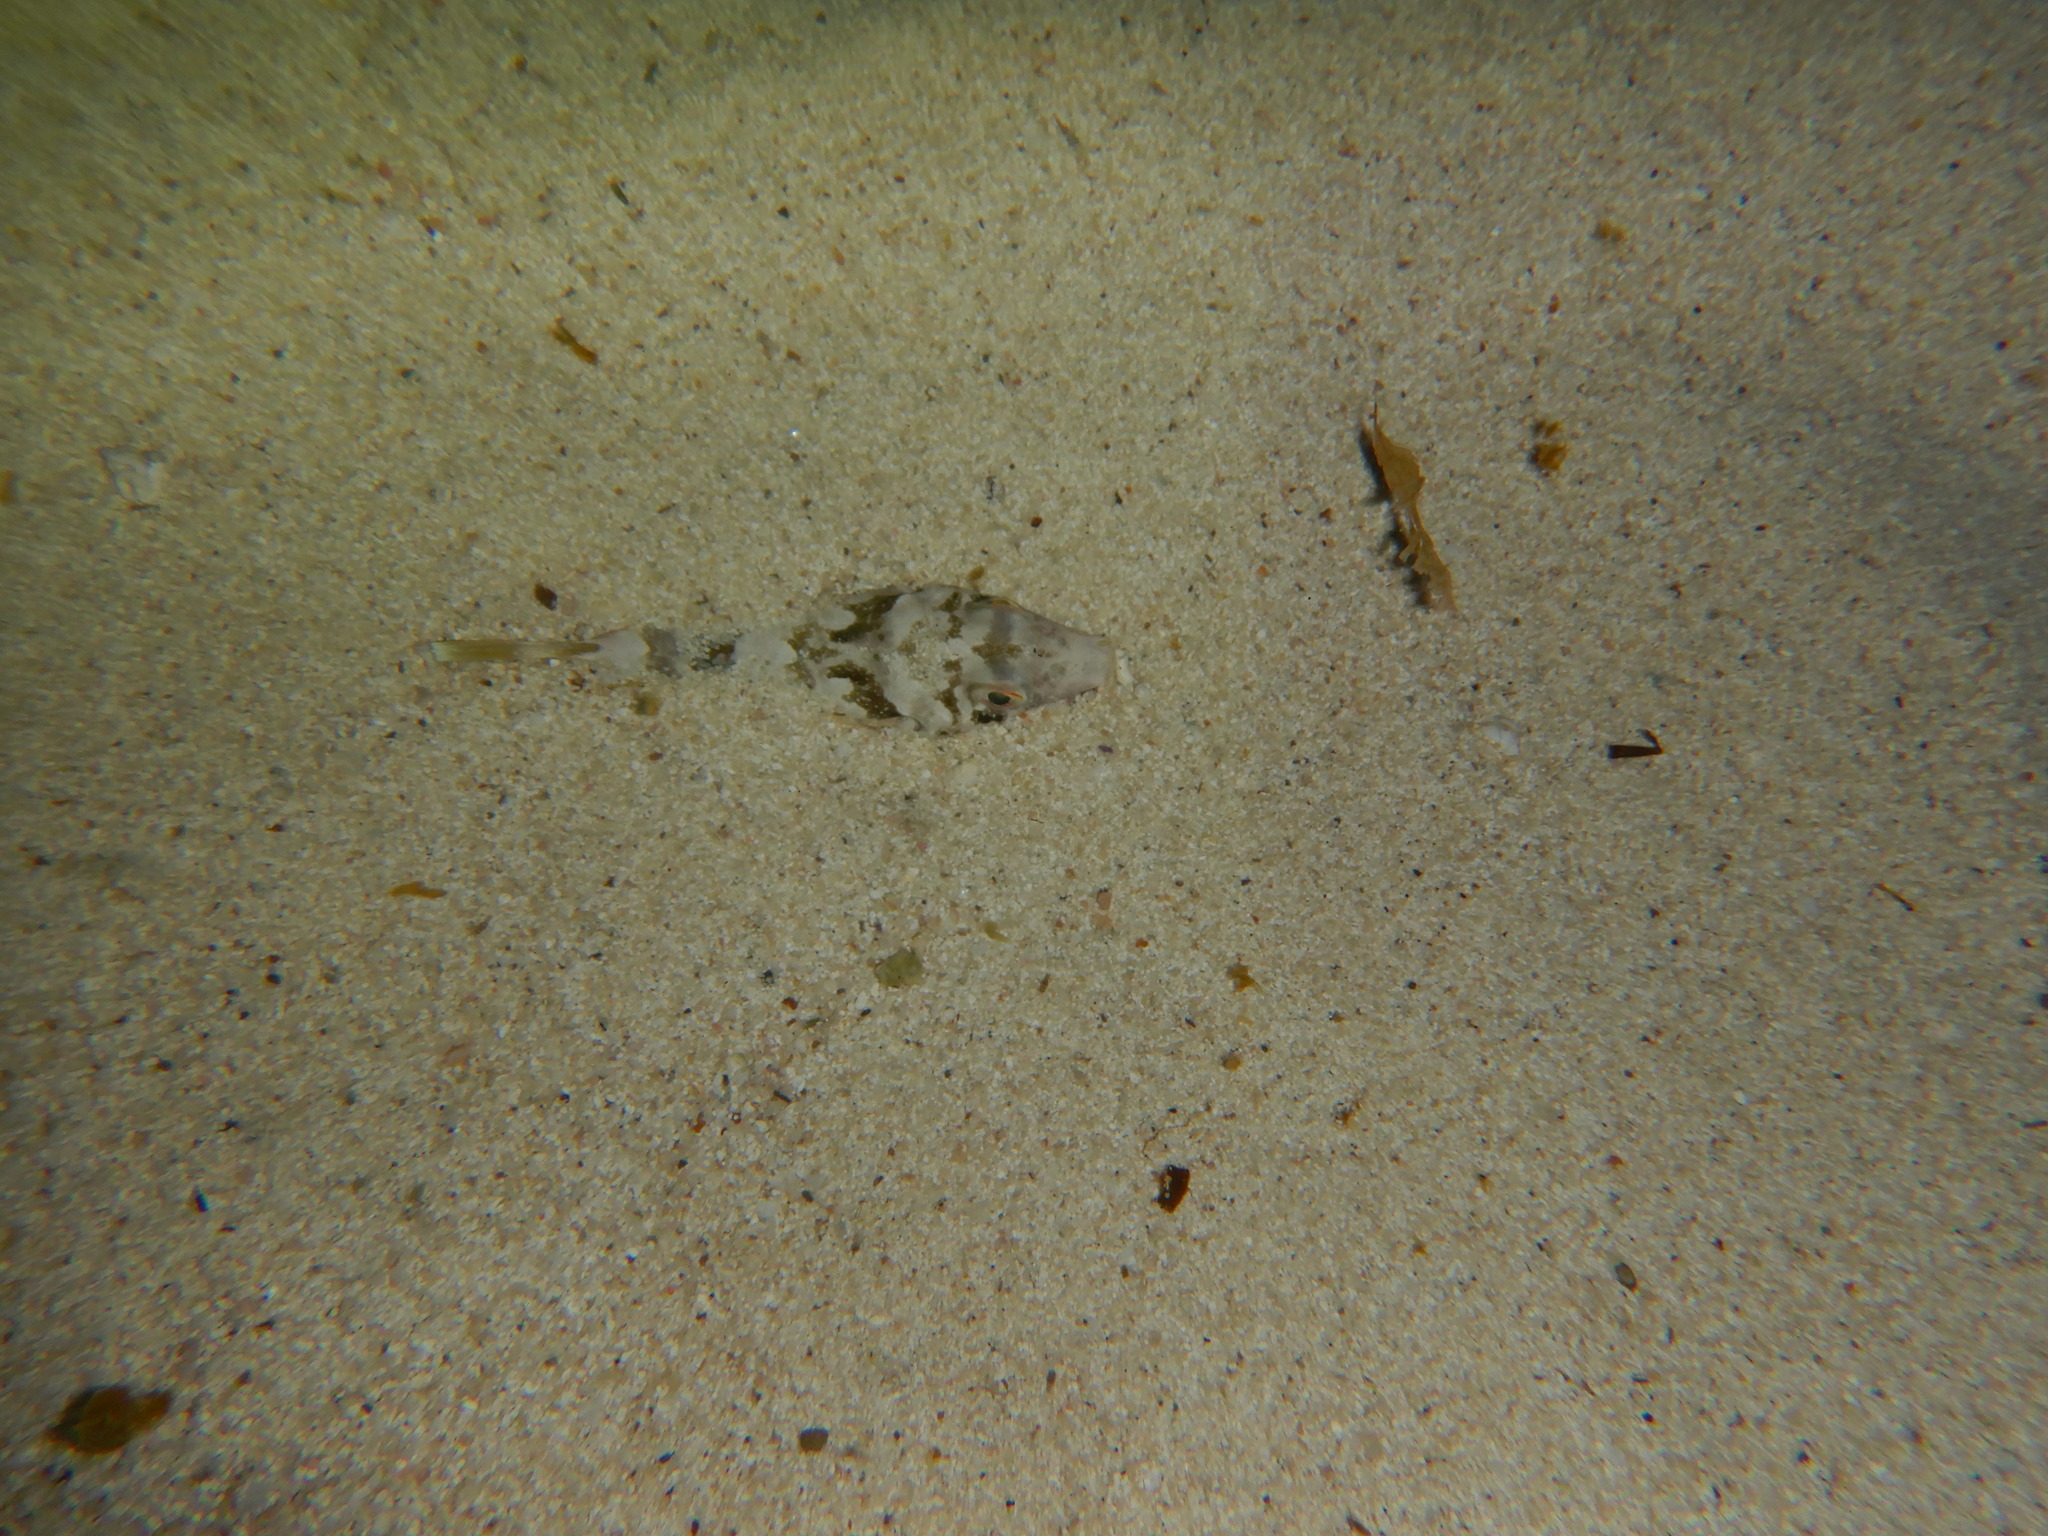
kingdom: Animalia
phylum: Chordata
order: Tetraodontiformes
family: Tetraodontidae
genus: Sphoeroides
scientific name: Sphoeroides marmoratus
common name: Guinean puffer
